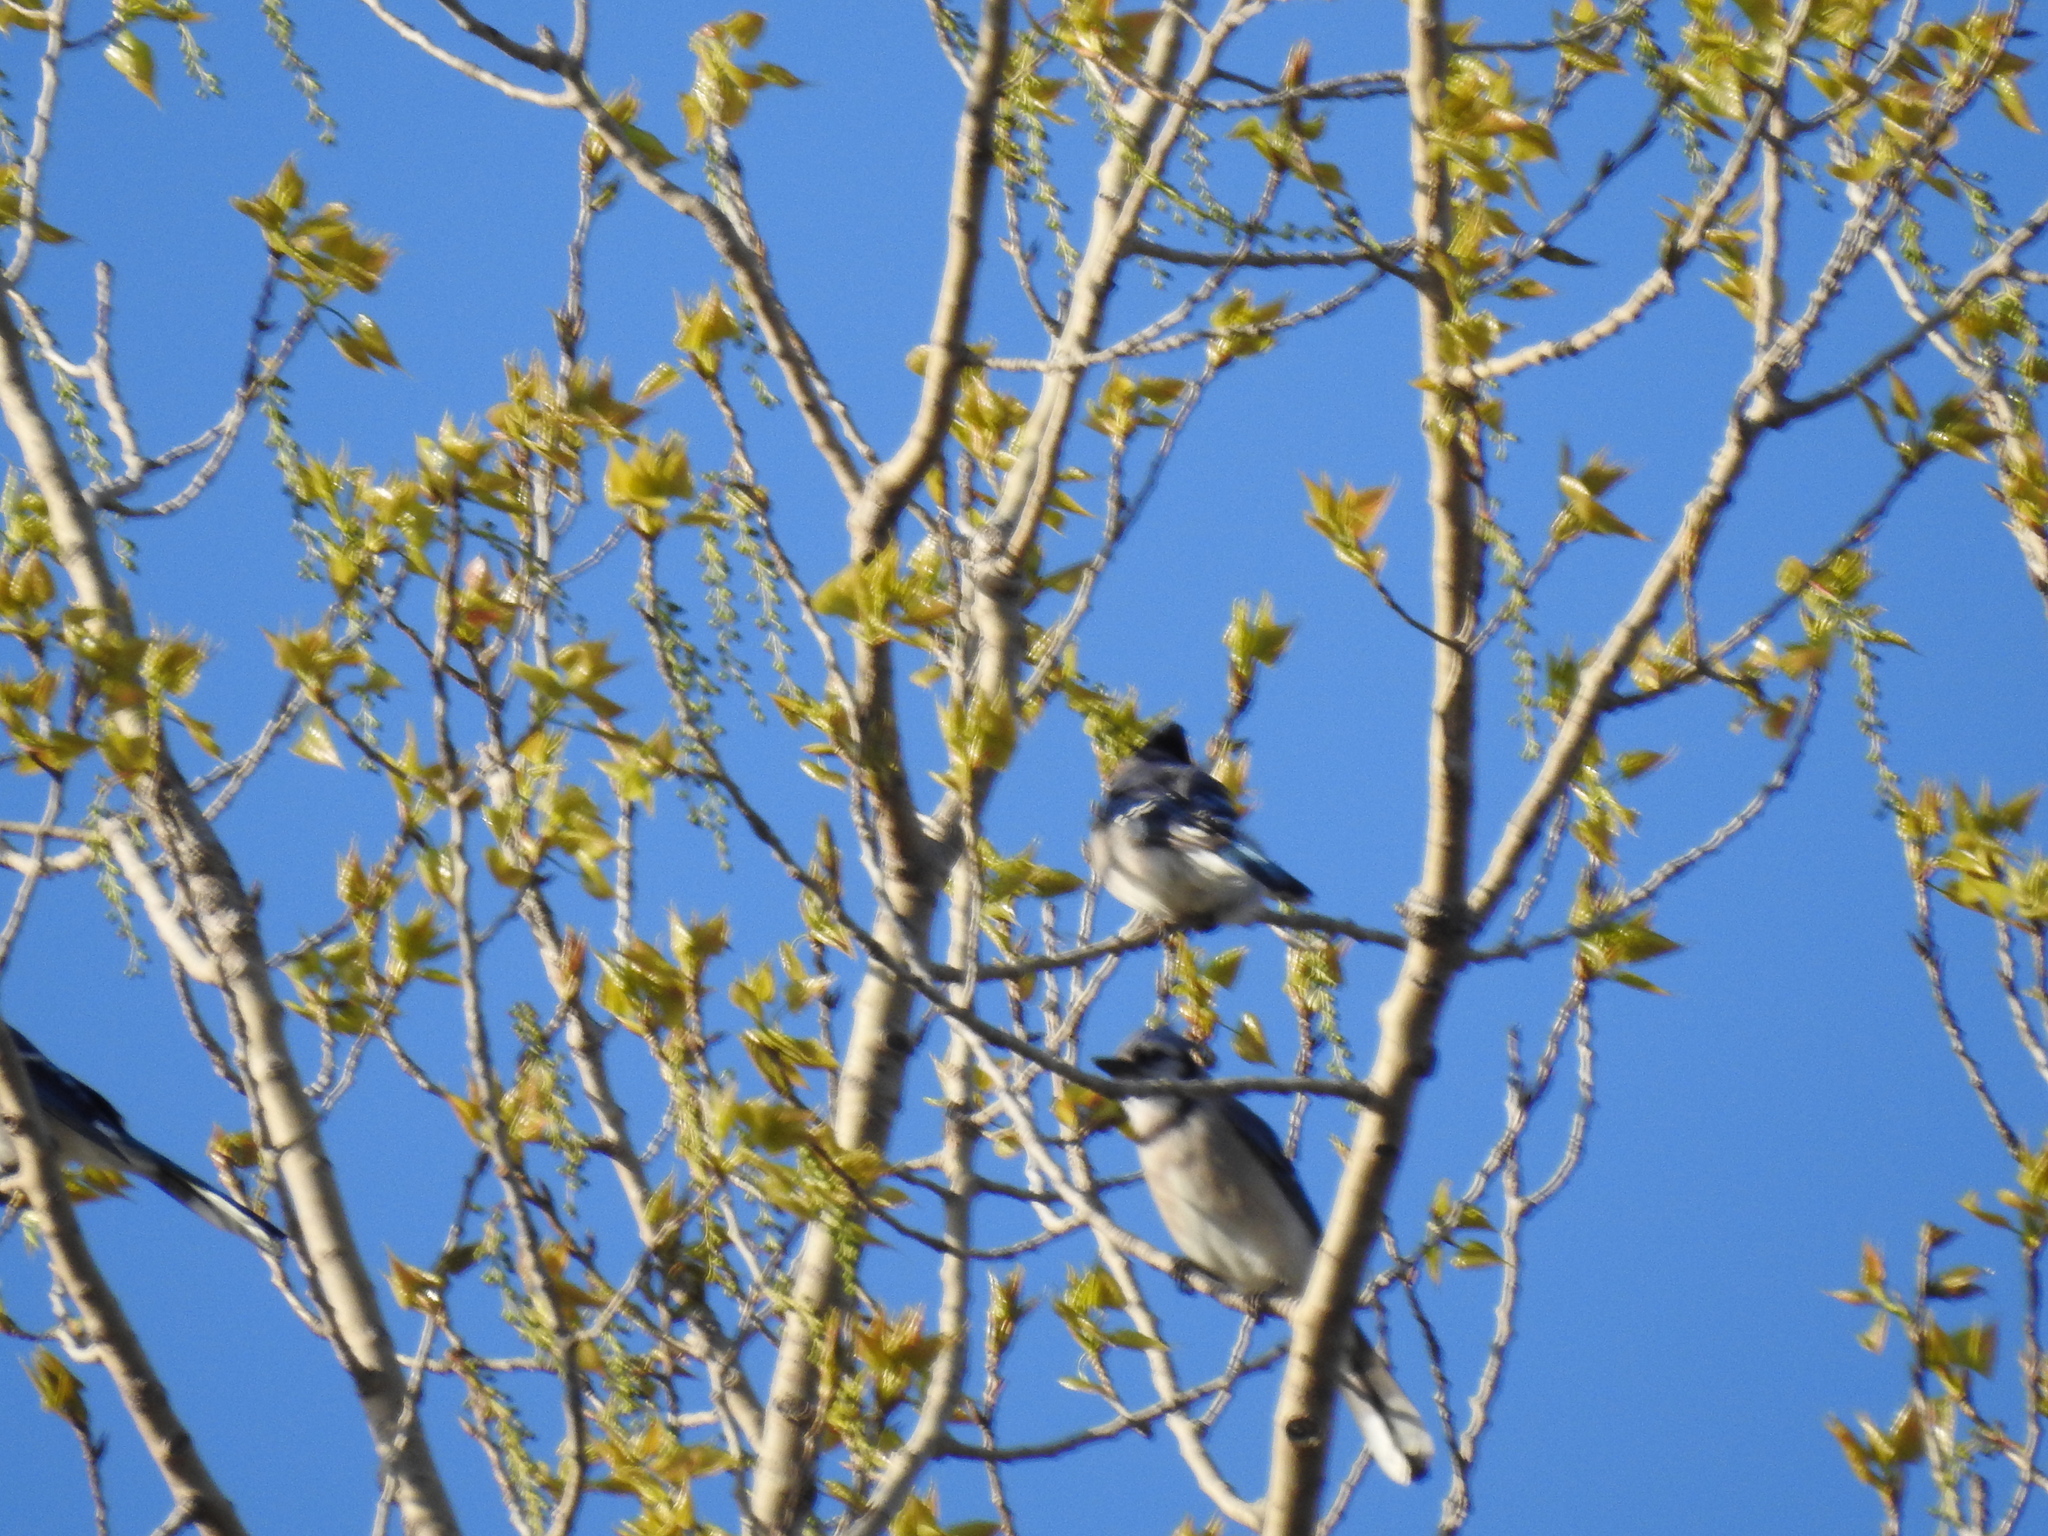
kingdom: Animalia
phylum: Chordata
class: Aves
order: Passeriformes
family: Corvidae
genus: Cyanocitta
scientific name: Cyanocitta cristata
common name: Blue jay
